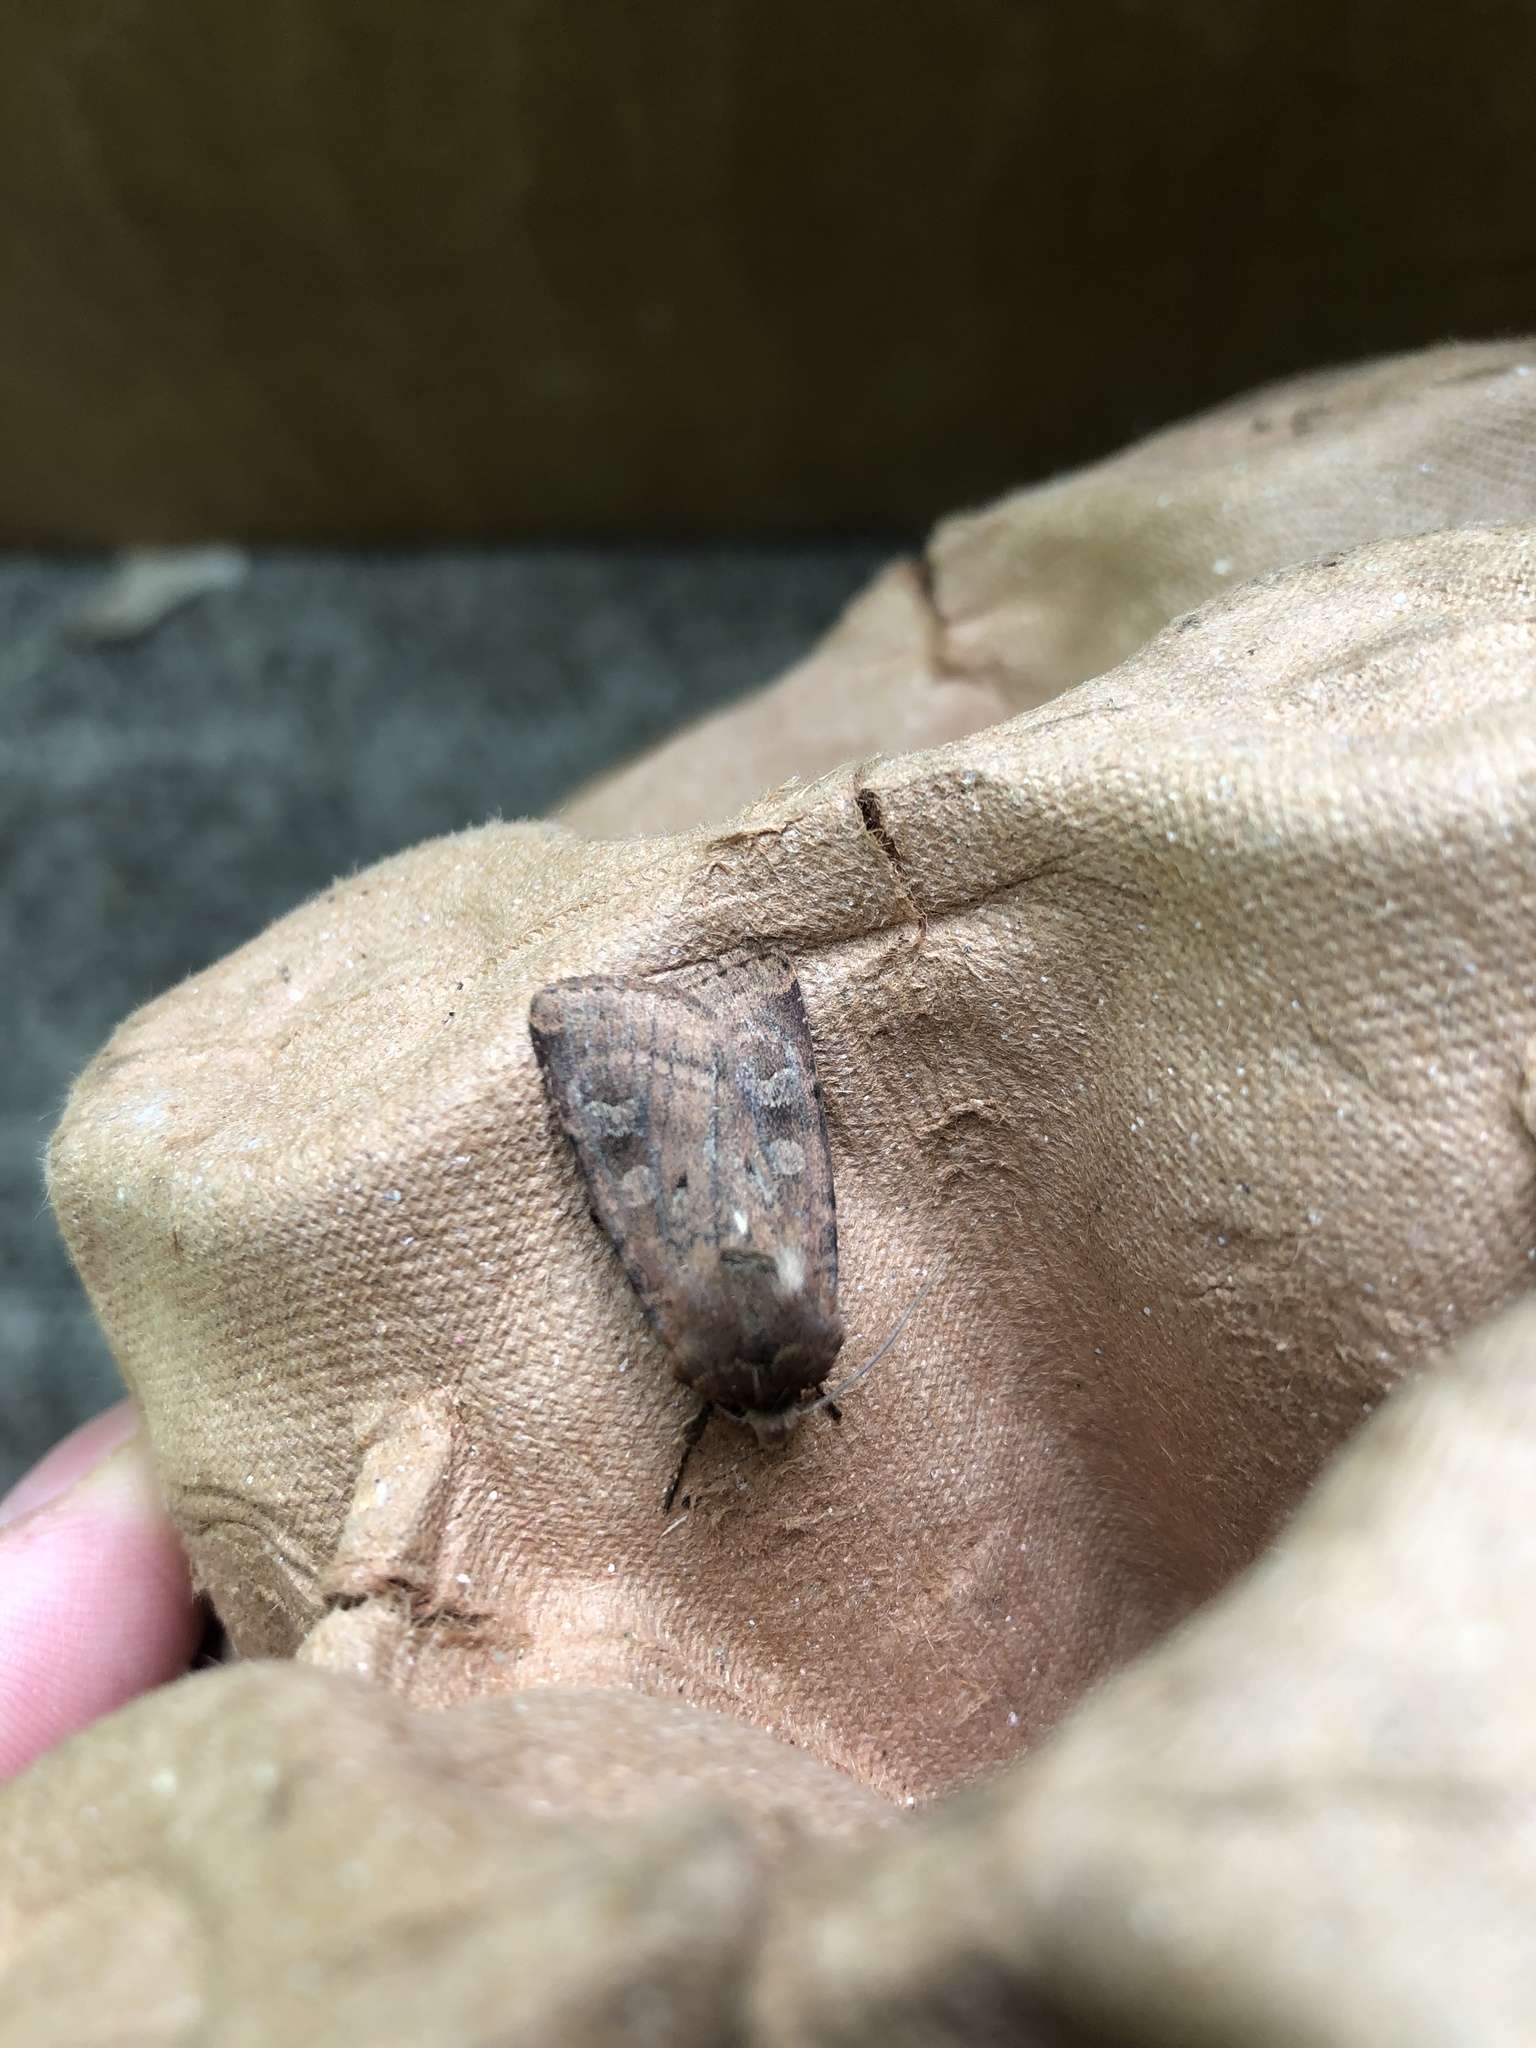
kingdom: Animalia
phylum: Arthropoda
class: Insecta
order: Lepidoptera
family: Noctuidae
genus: Diarsia
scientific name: Diarsia rubi
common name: Small square-spot
